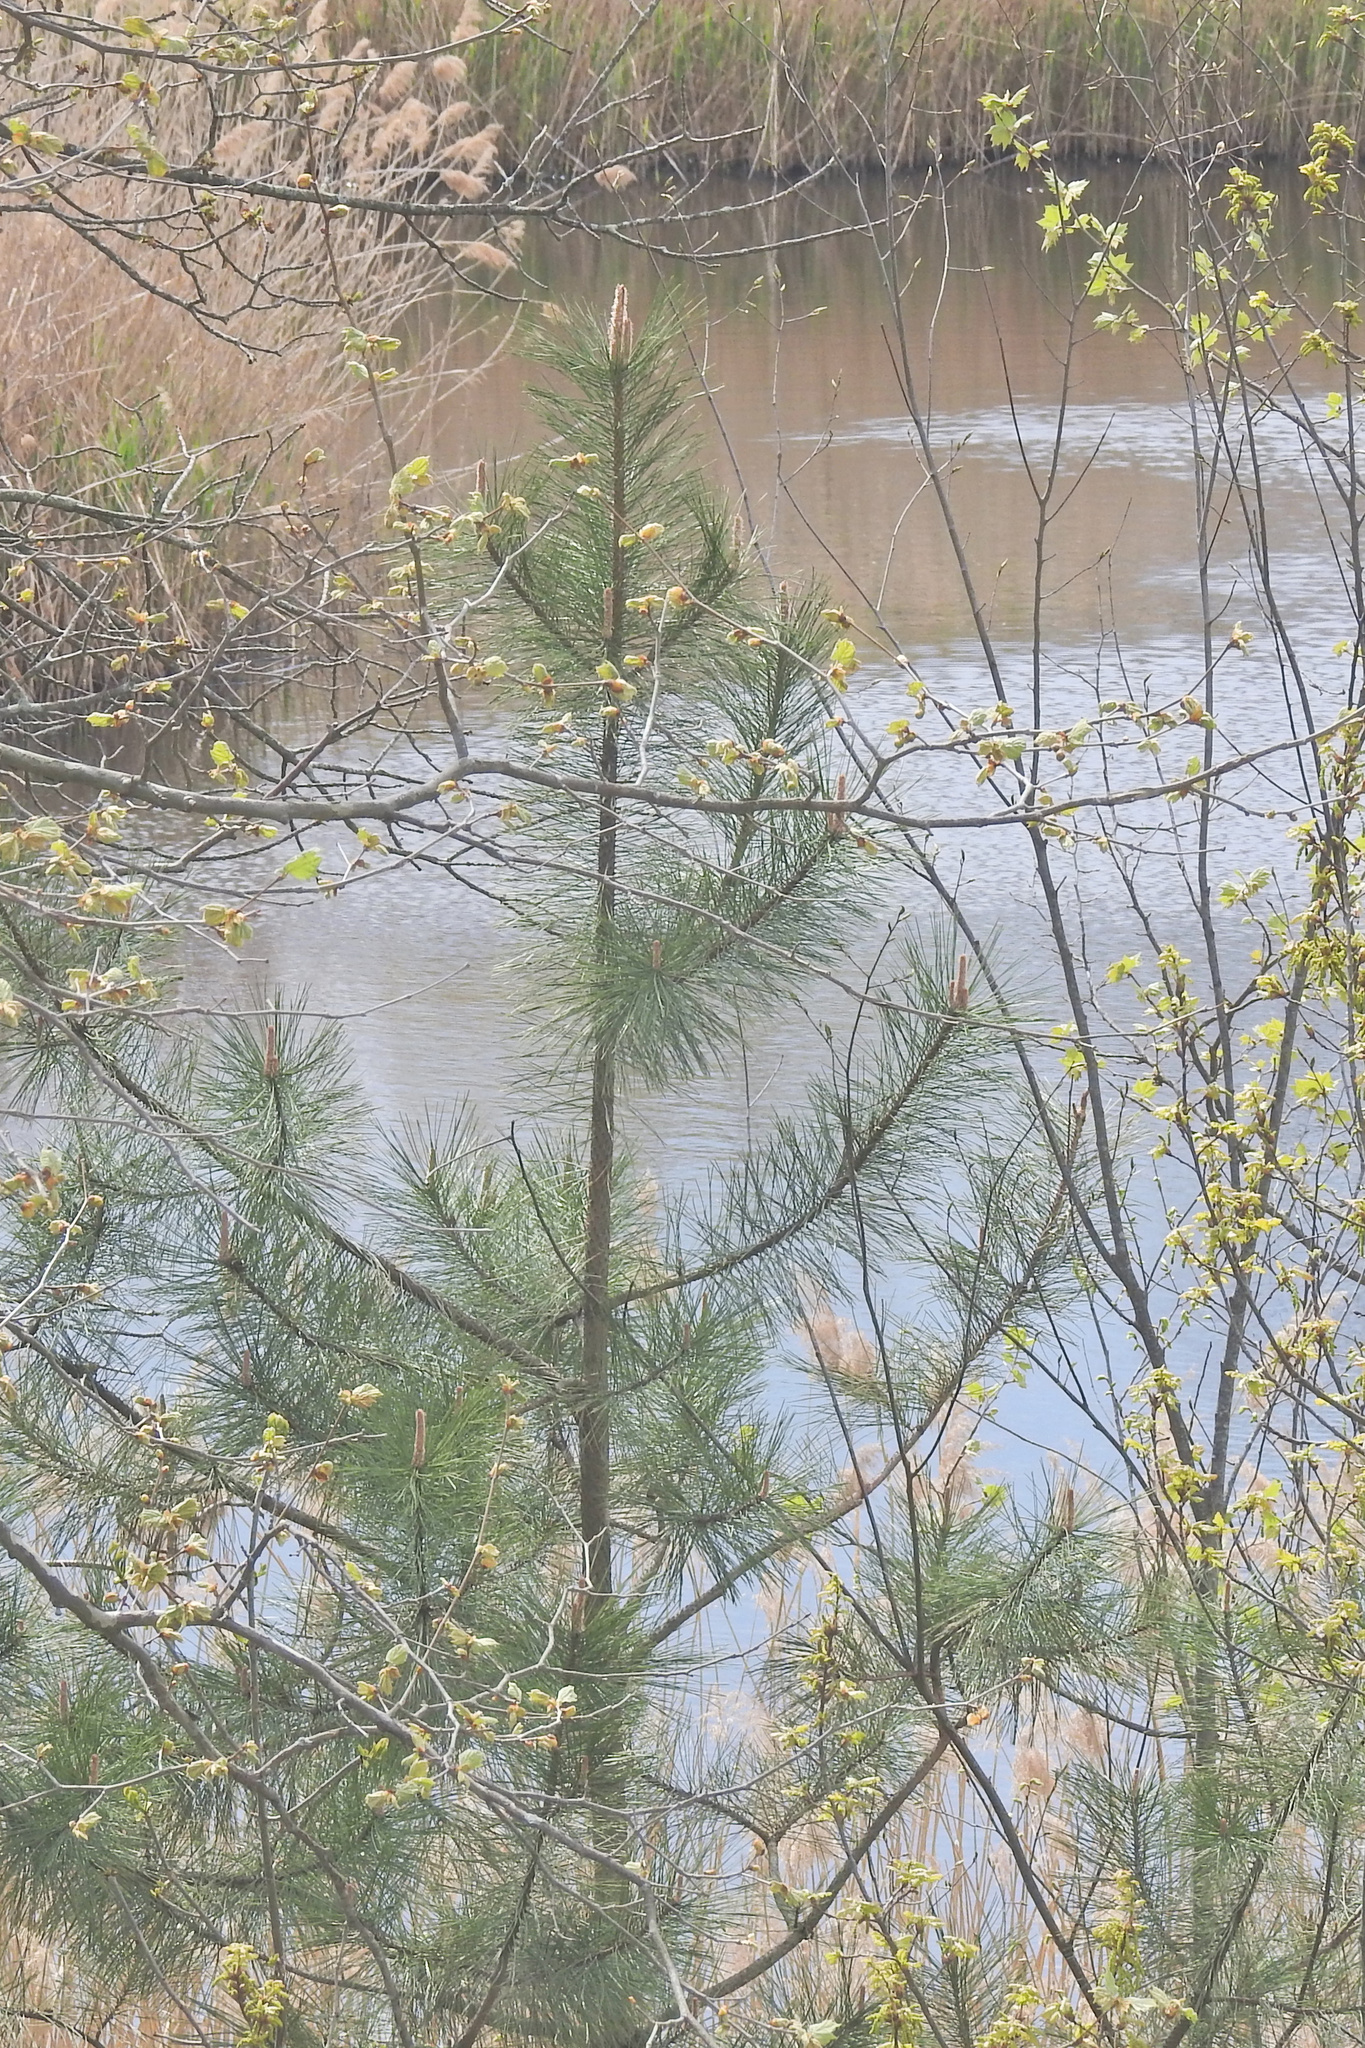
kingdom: Plantae
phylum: Tracheophyta
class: Pinopsida
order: Pinales
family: Pinaceae
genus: Pinus
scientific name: Pinus strobus
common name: Weymouth pine
